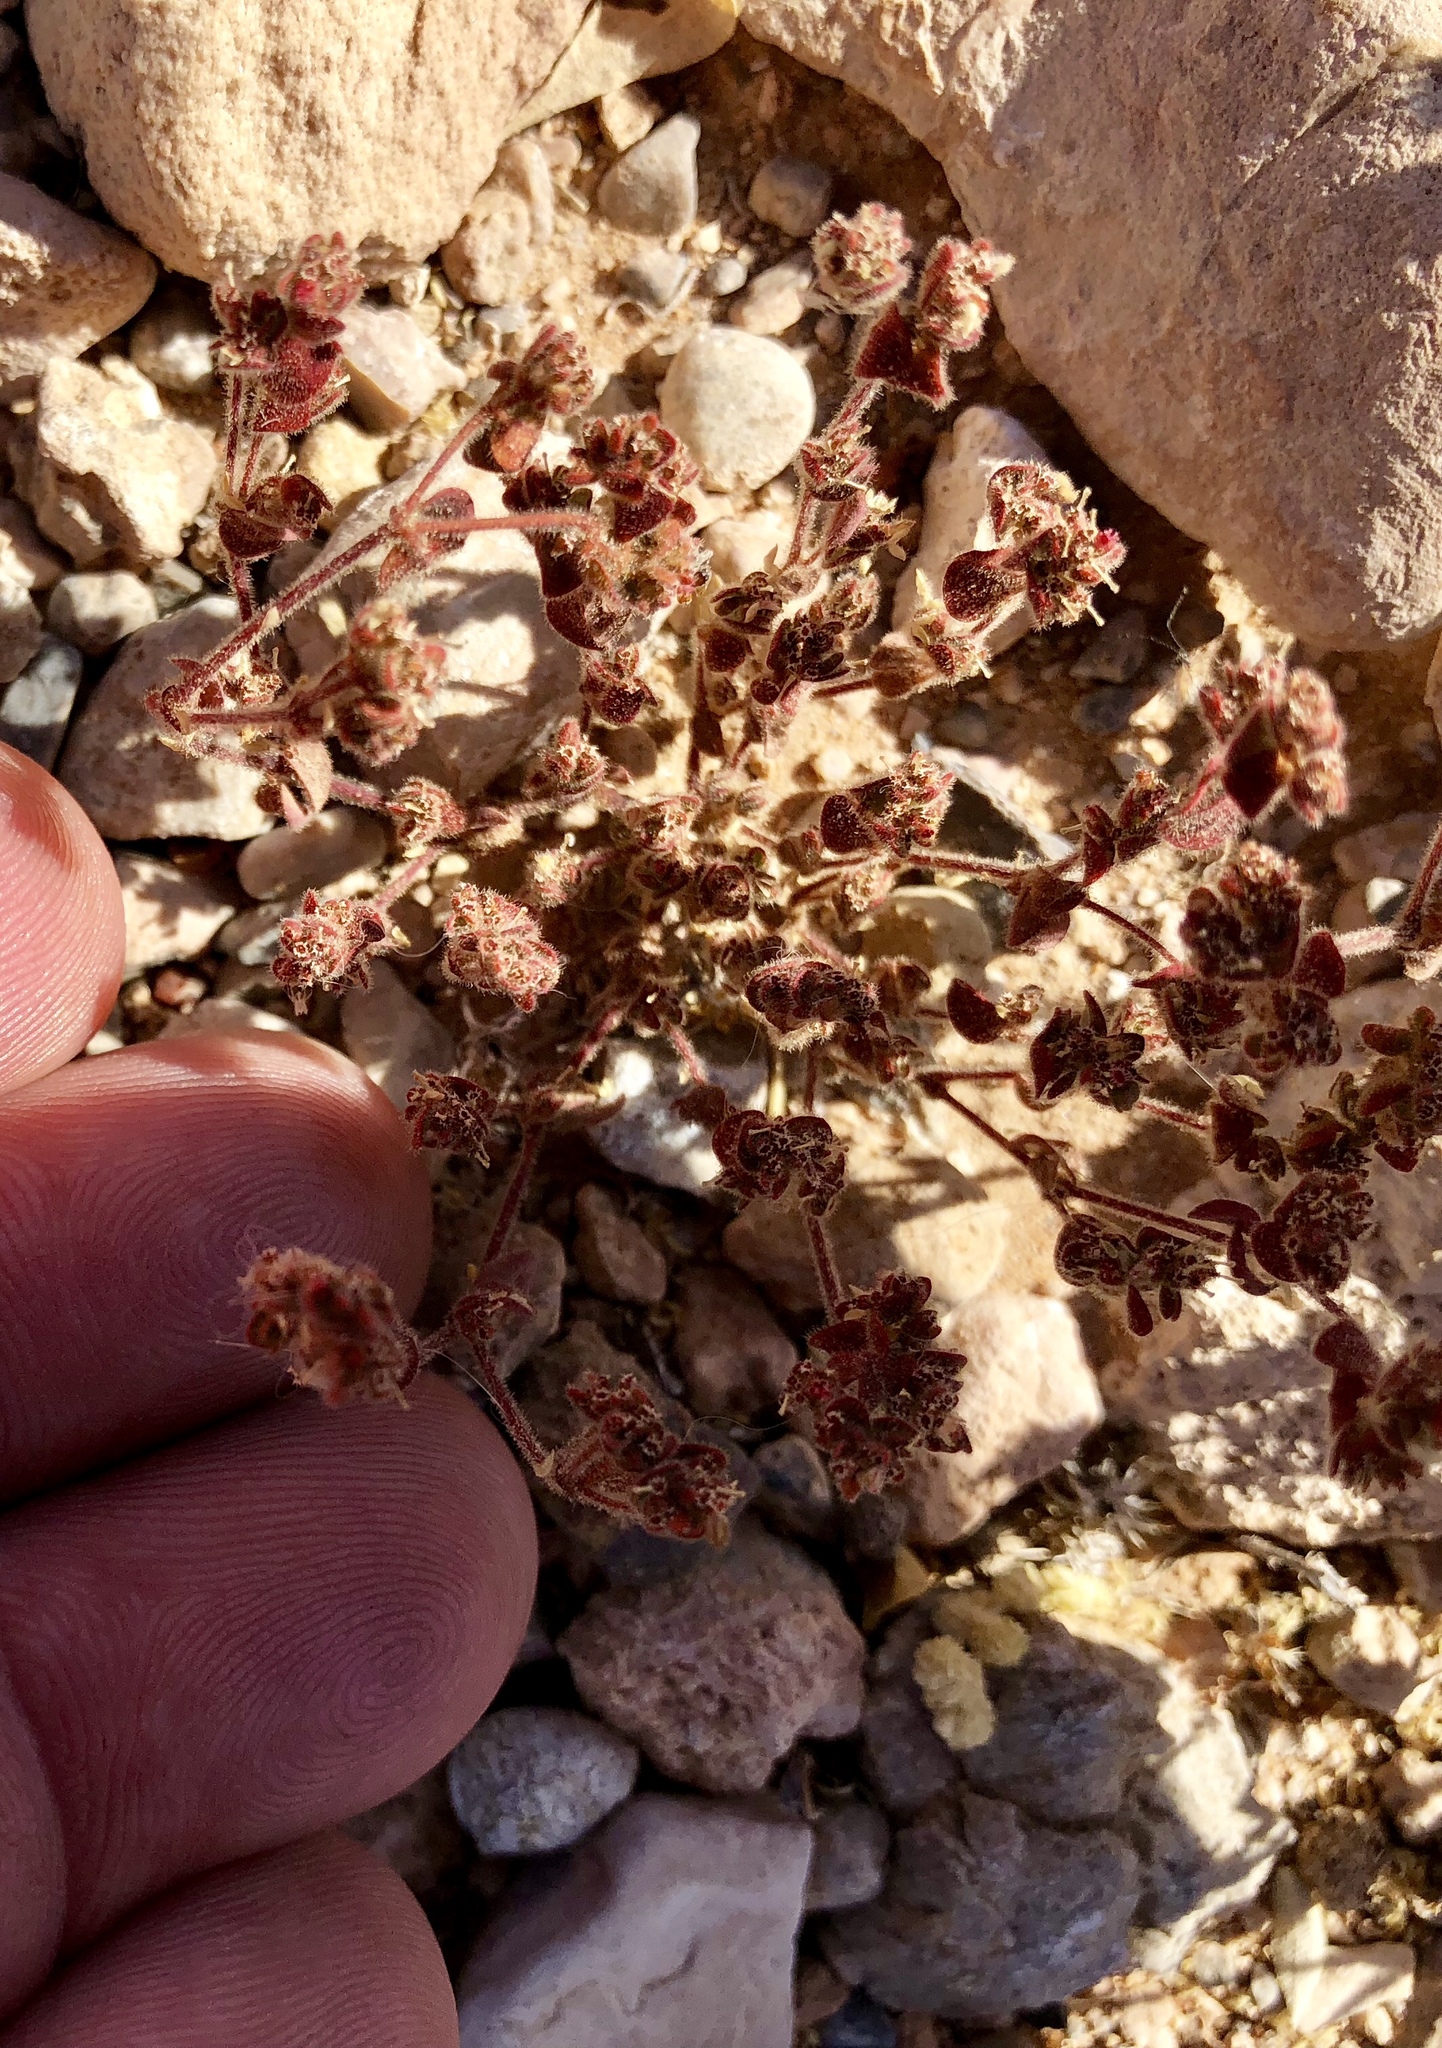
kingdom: Plantae
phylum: Tracheophyta
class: Magnoliopsida
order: Malpighiales
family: Euphorbiaceae
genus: Euphorbia
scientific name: Euphorbia setiloba
